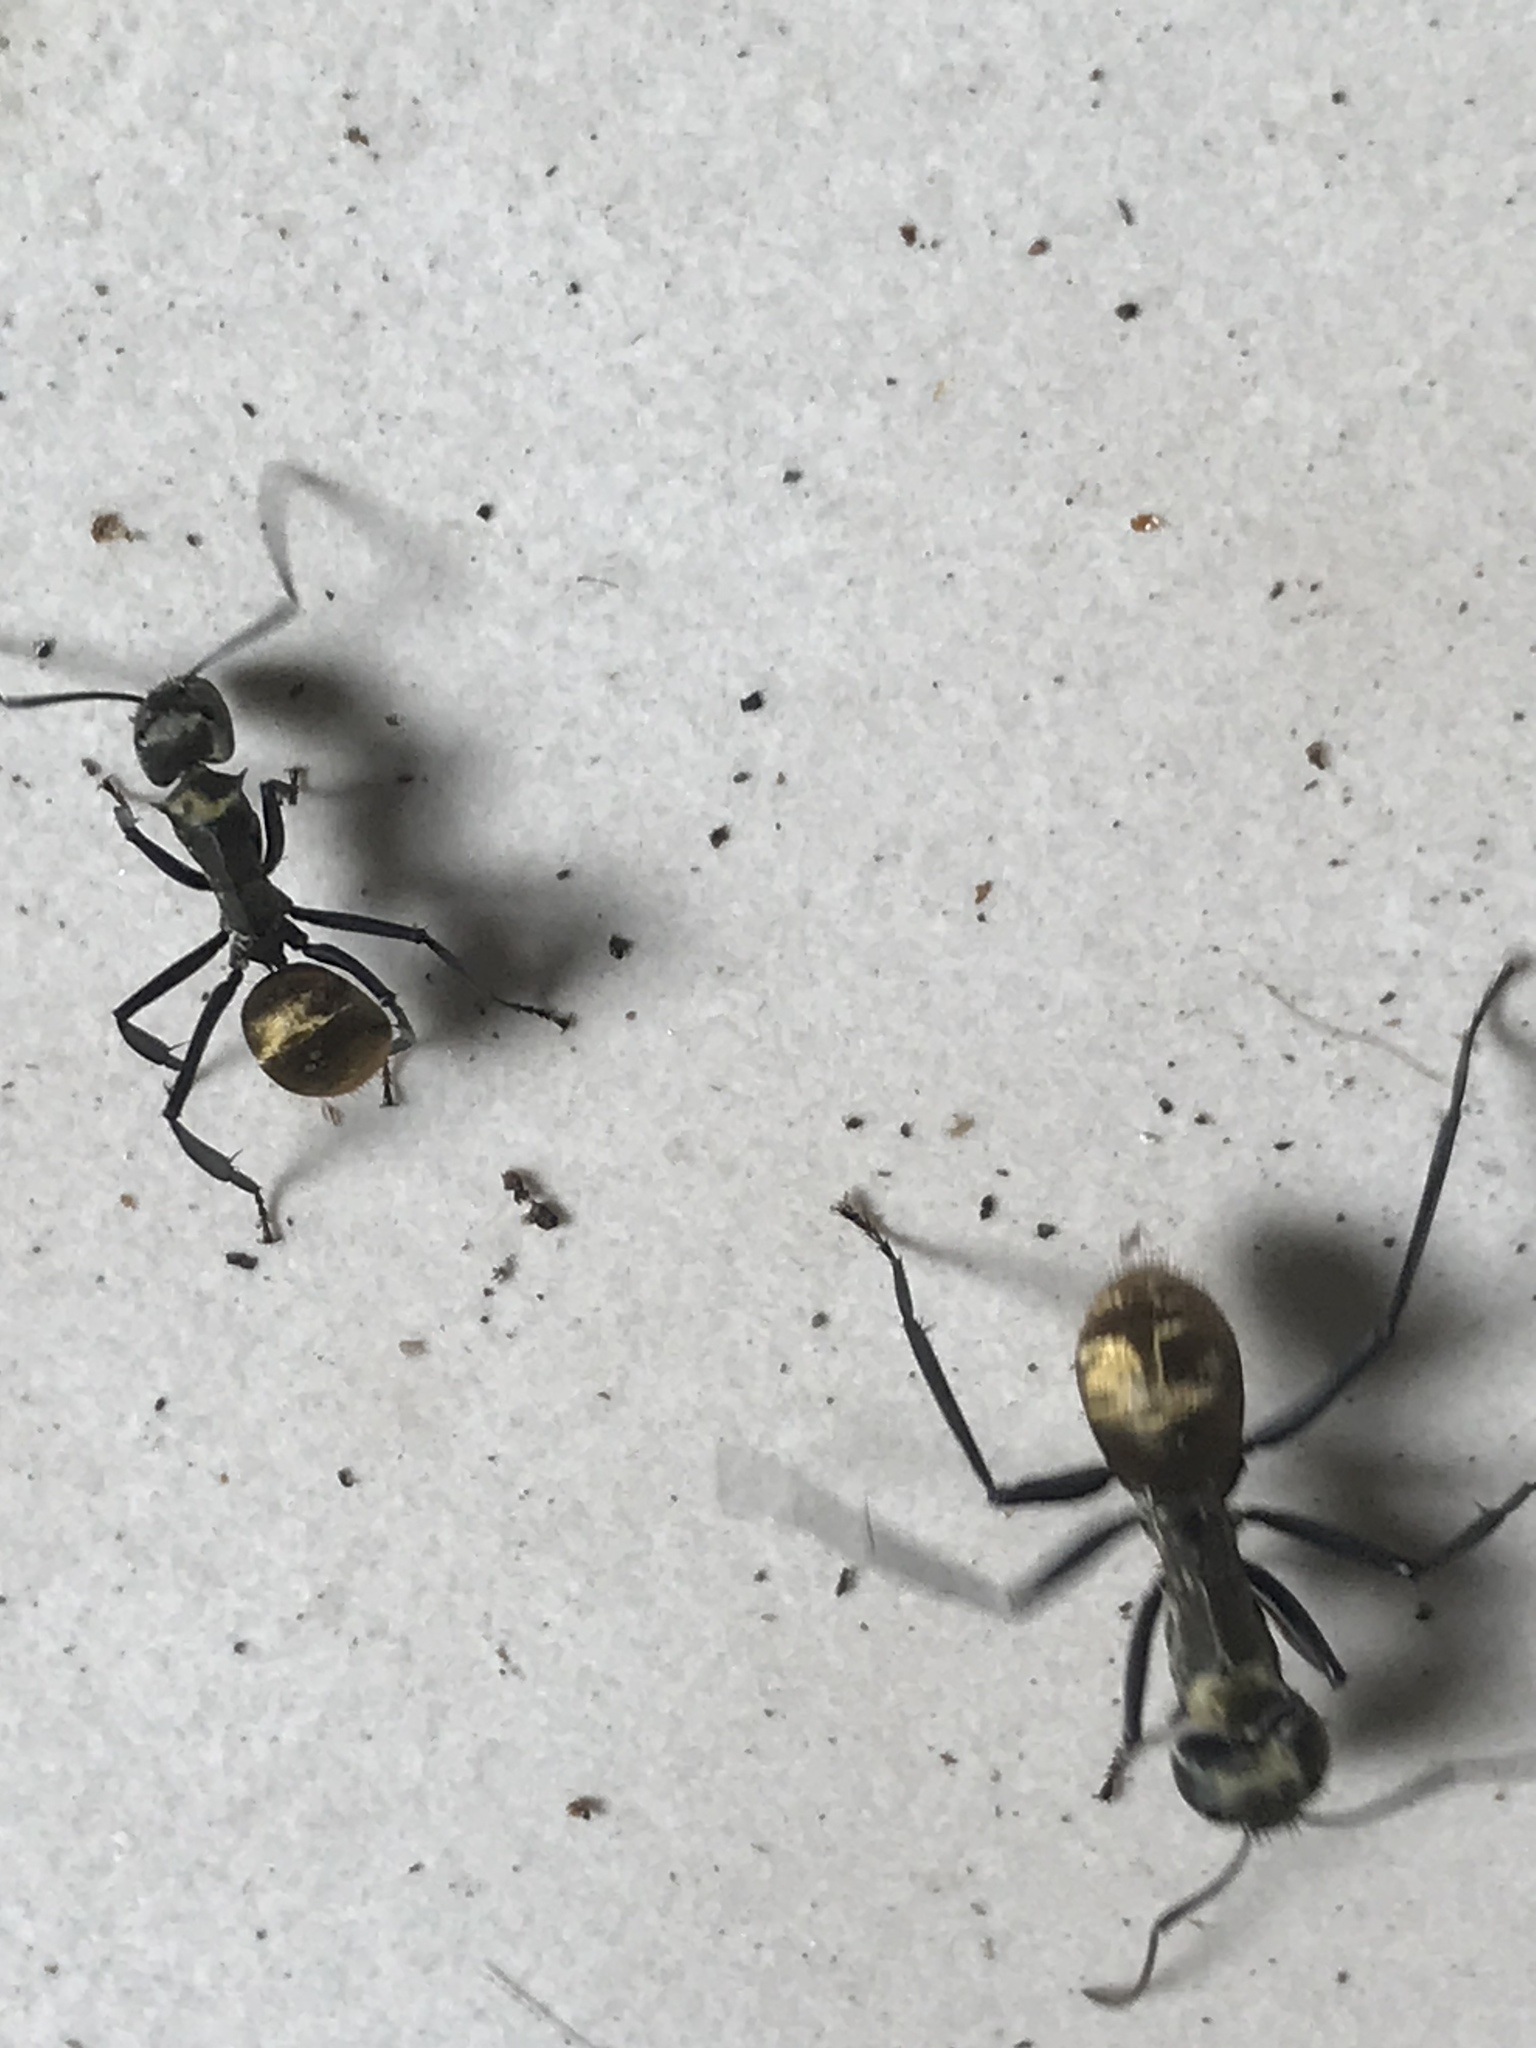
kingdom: Animalia
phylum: Arthropoda
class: Insecta
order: Hymenoptera
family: Formicidae
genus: Camponotus
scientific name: Camponotus sericeiventris
